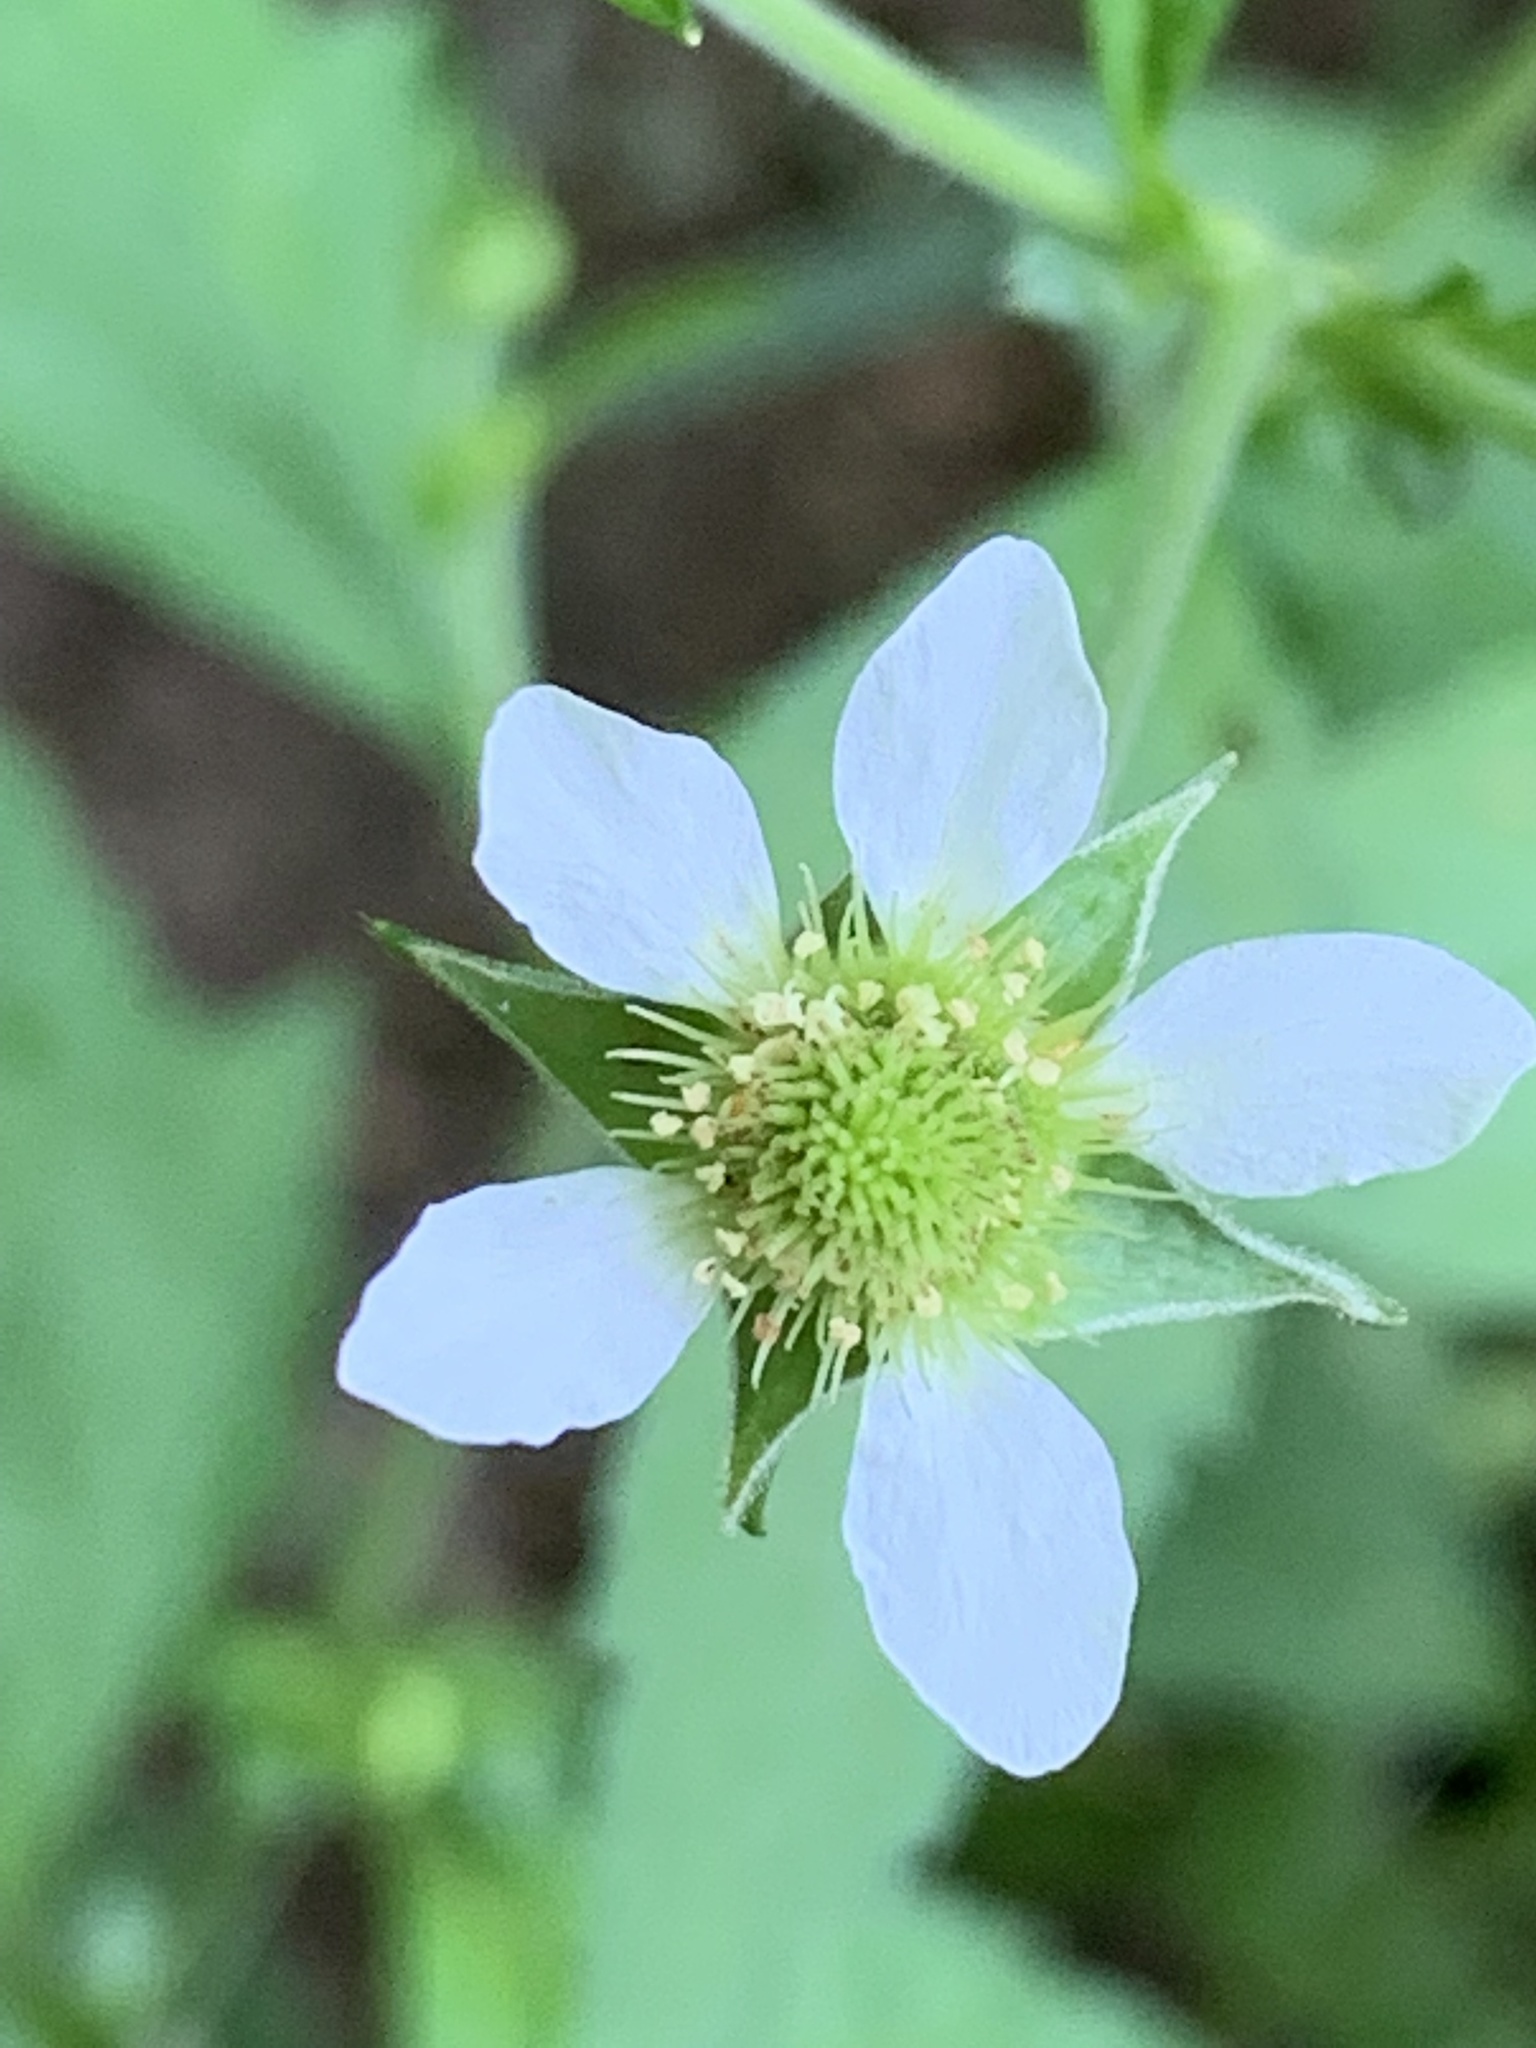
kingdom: Plantae
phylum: Tracheophyta
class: Magnoliopsida
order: Rosales
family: Rosaceae
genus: Geum
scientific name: Geum canadense
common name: White avens
